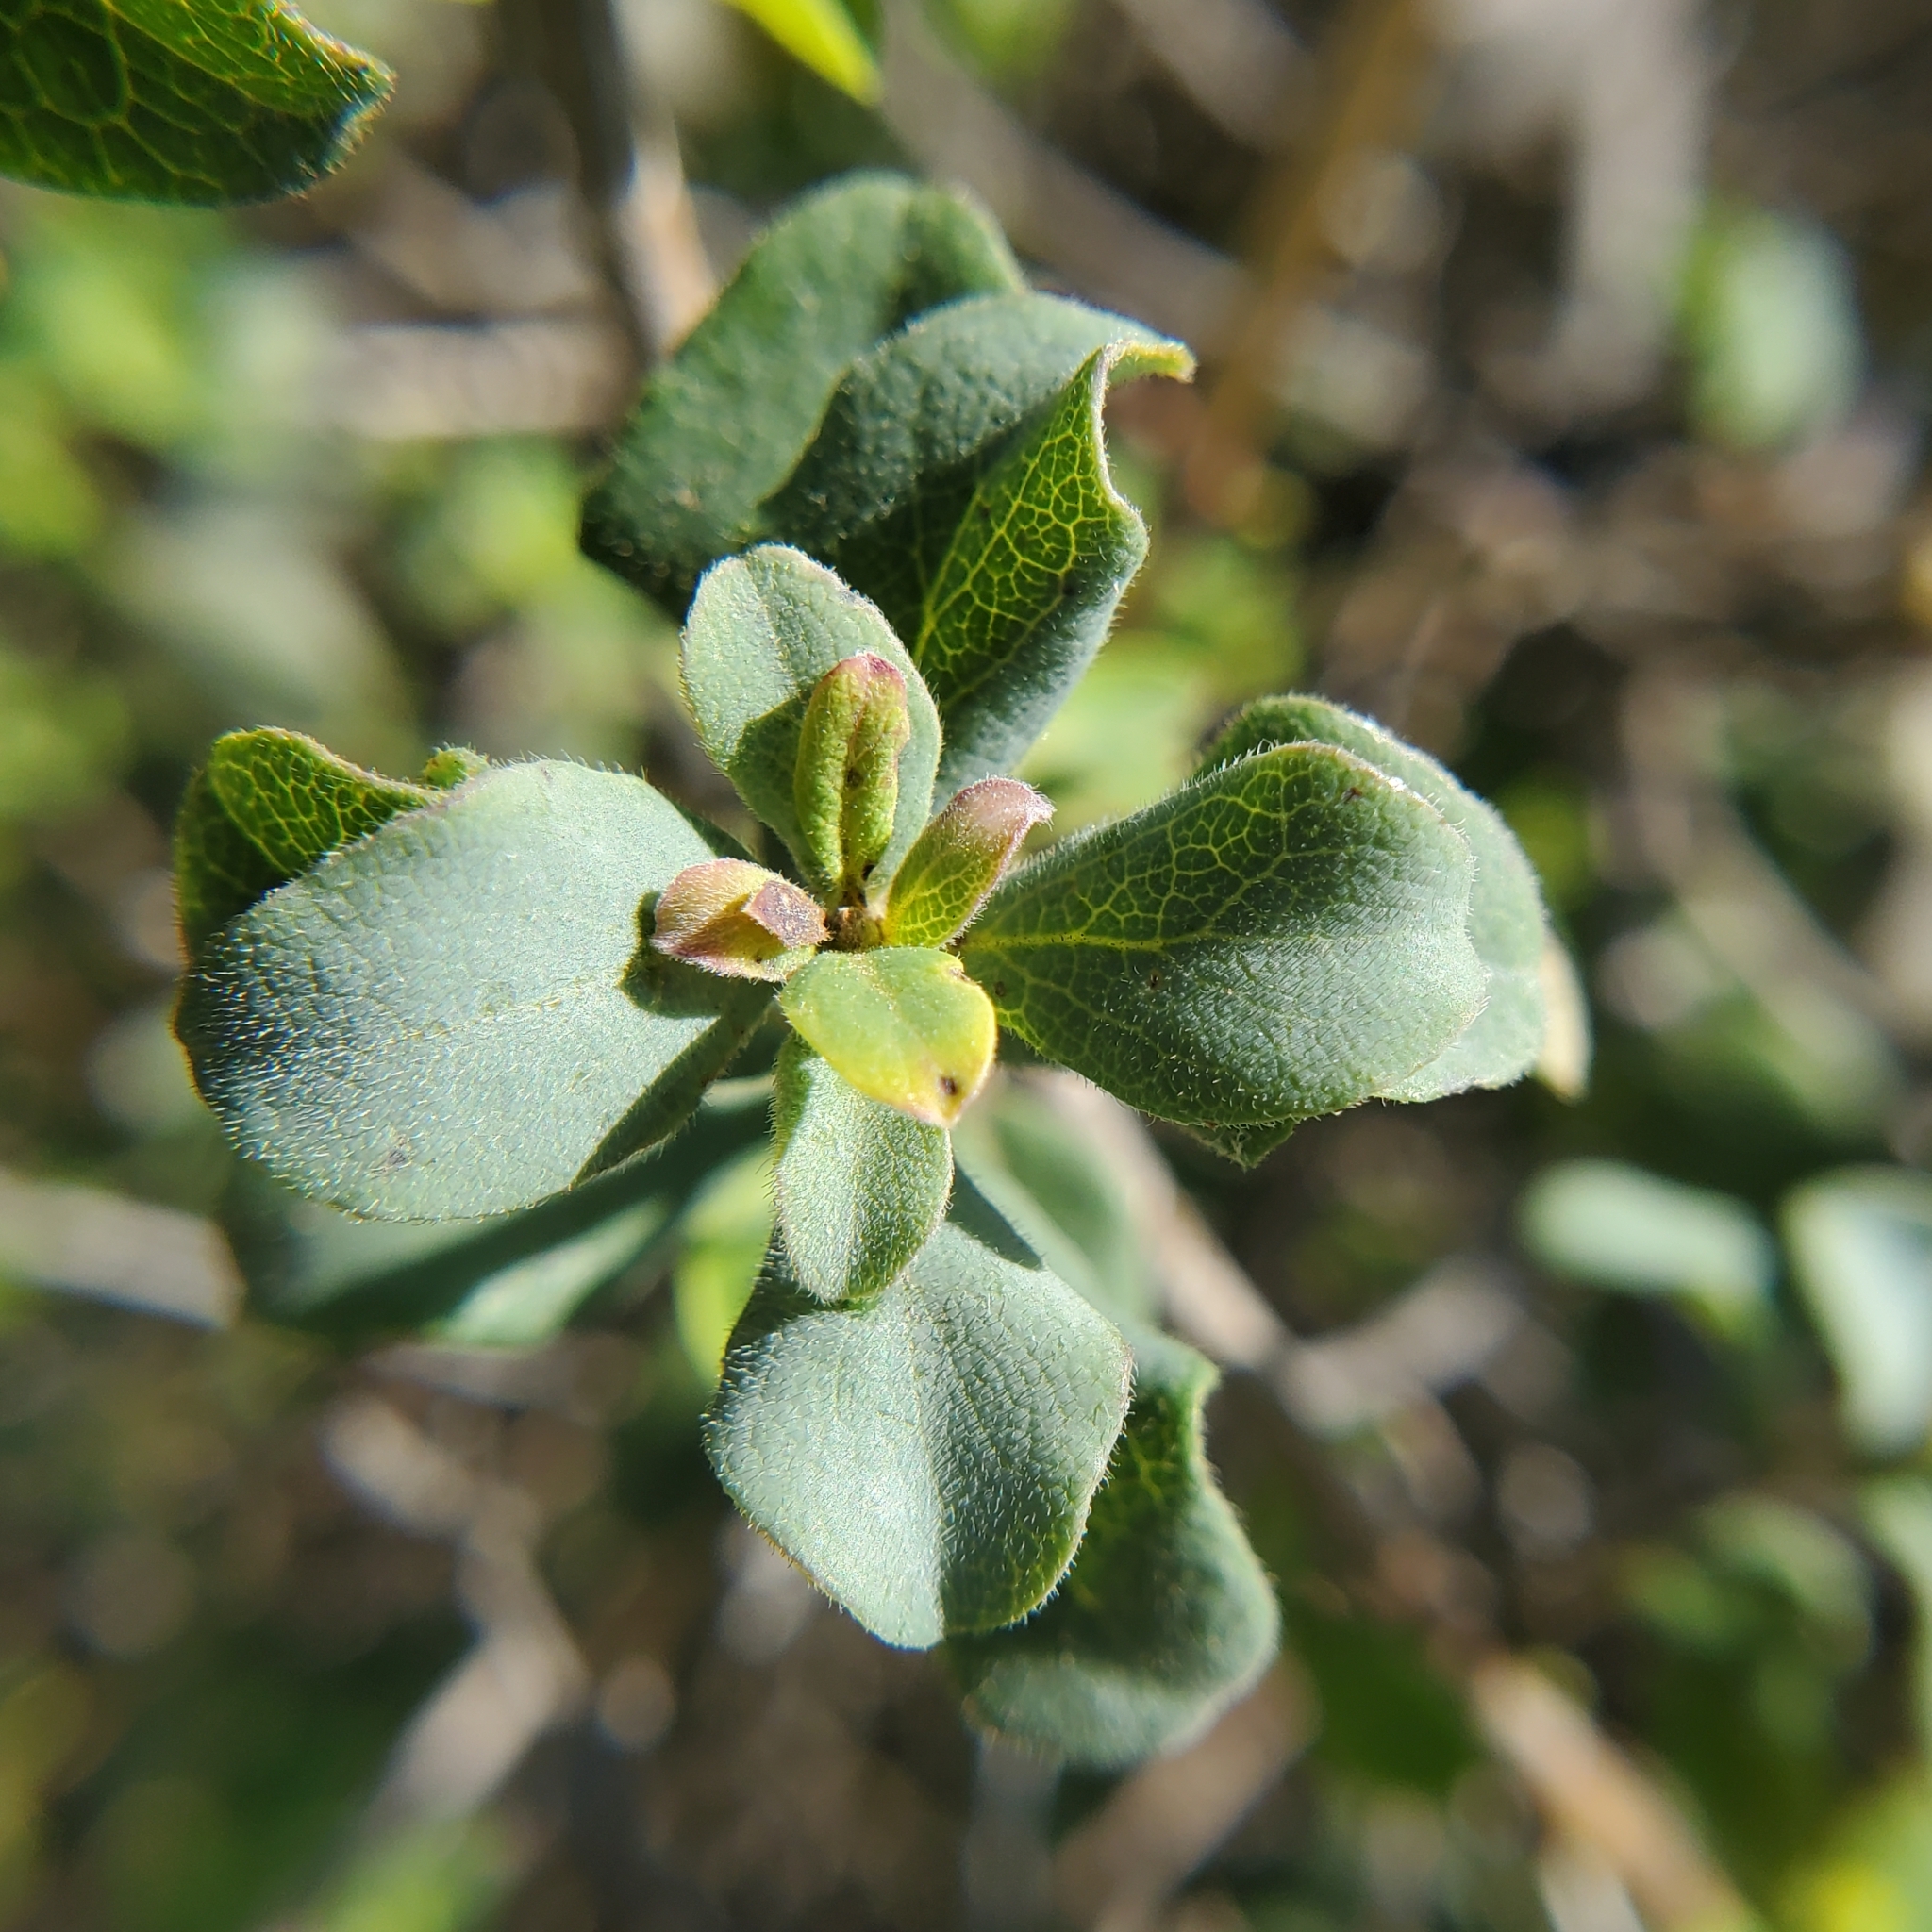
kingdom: Plantae
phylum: Tracheophyta
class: Magnoliopsida
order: Dipsacales
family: Caprifoliaceae
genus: Lonicera
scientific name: Lonicera subspicata
